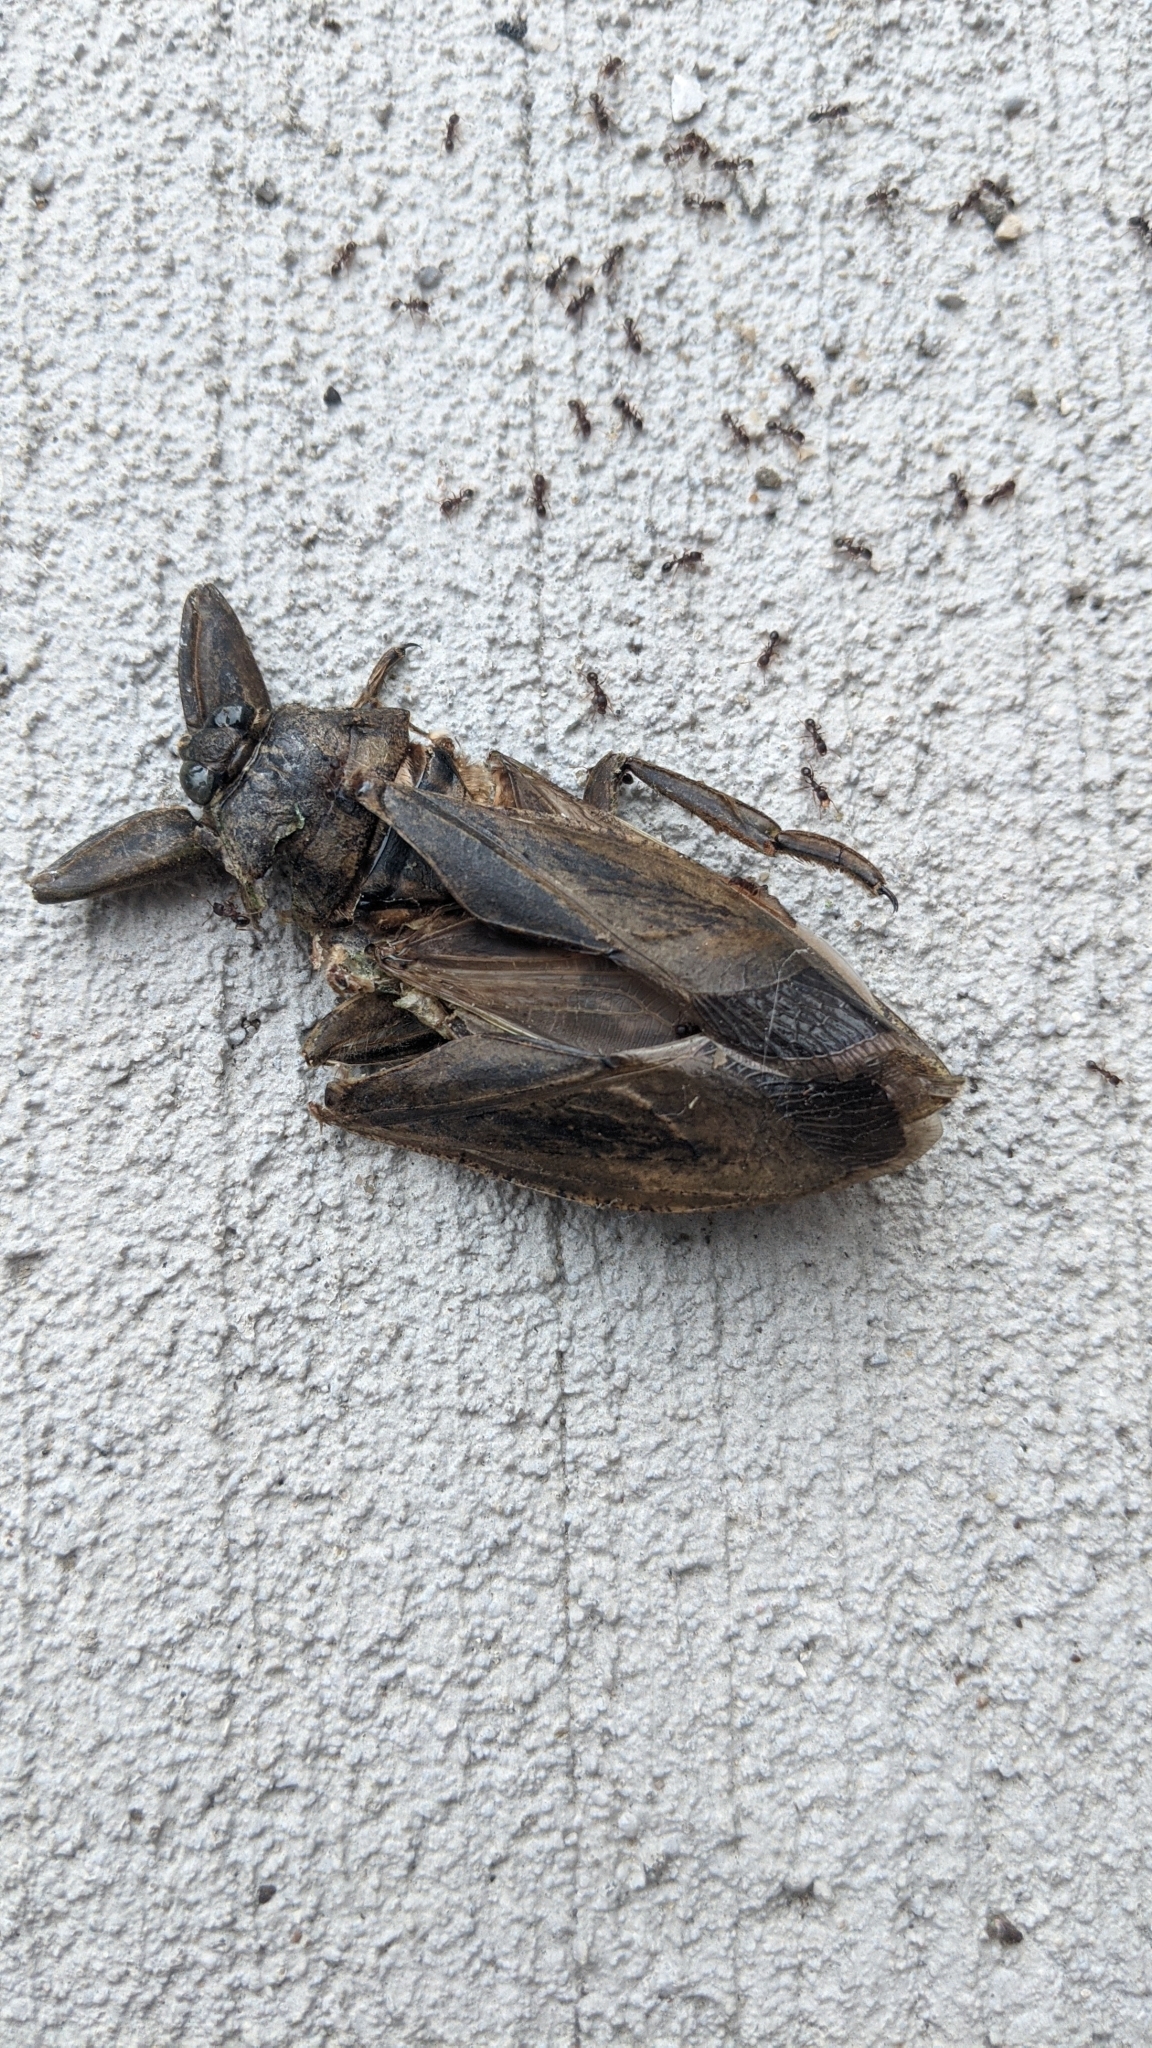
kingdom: Animalia
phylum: Arthropoda
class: Insecta
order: Hemiptera
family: Belostomatidae
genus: Lethocerus
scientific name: Lethocerus americanus
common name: Giant water bug
